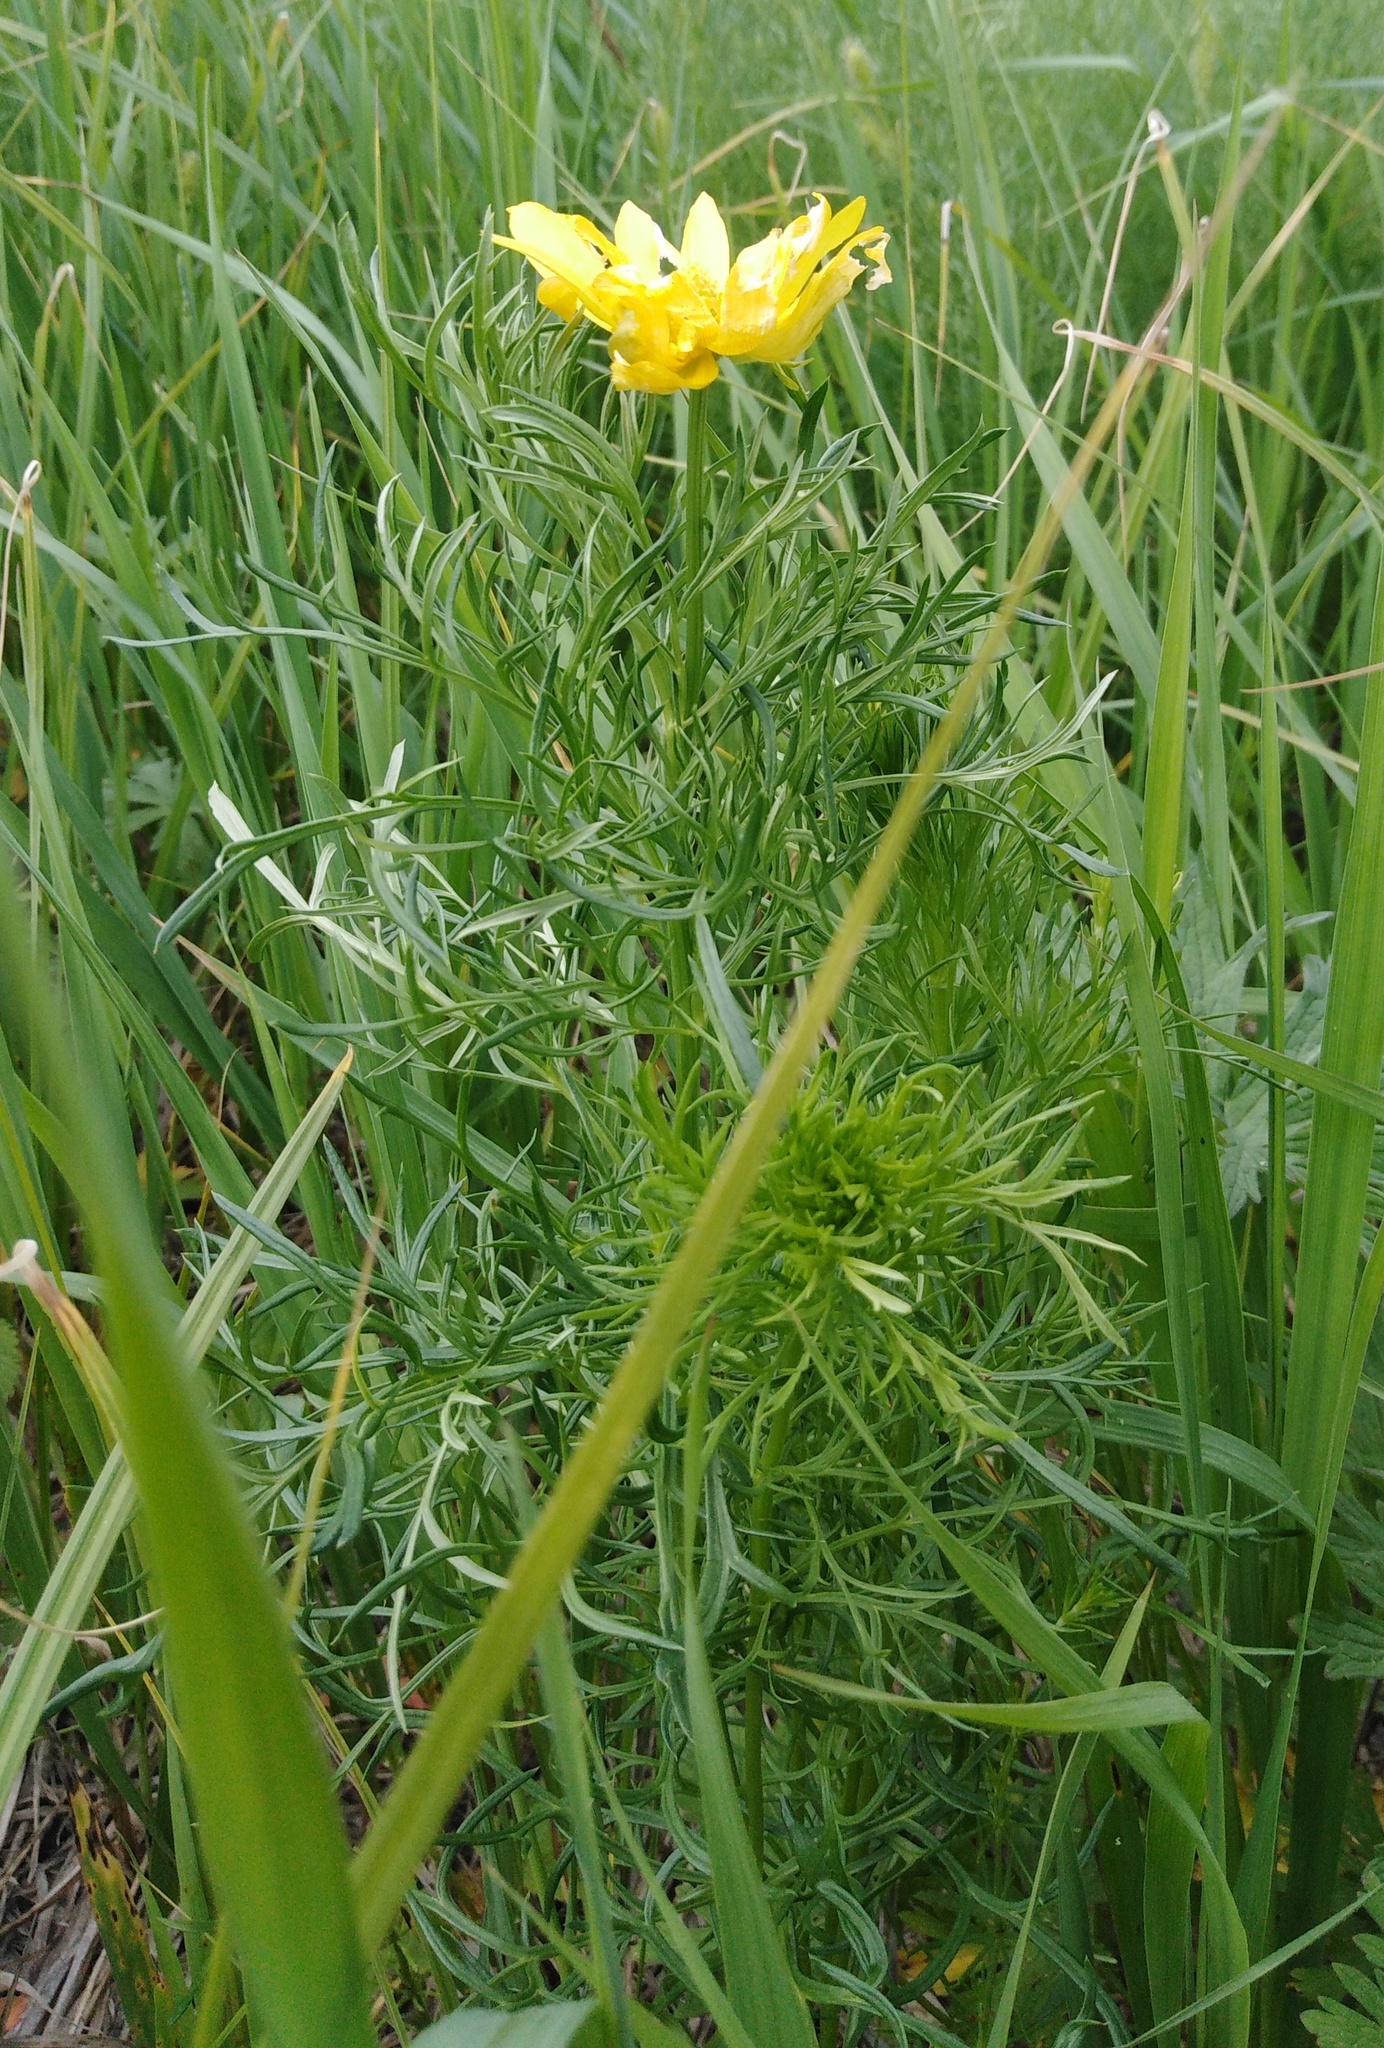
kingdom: Plantae
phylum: Tracheophyta
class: Magnoliopsida
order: Ranunculales
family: Ranunculaceae
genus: Adonis
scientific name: Adonis volgensis
